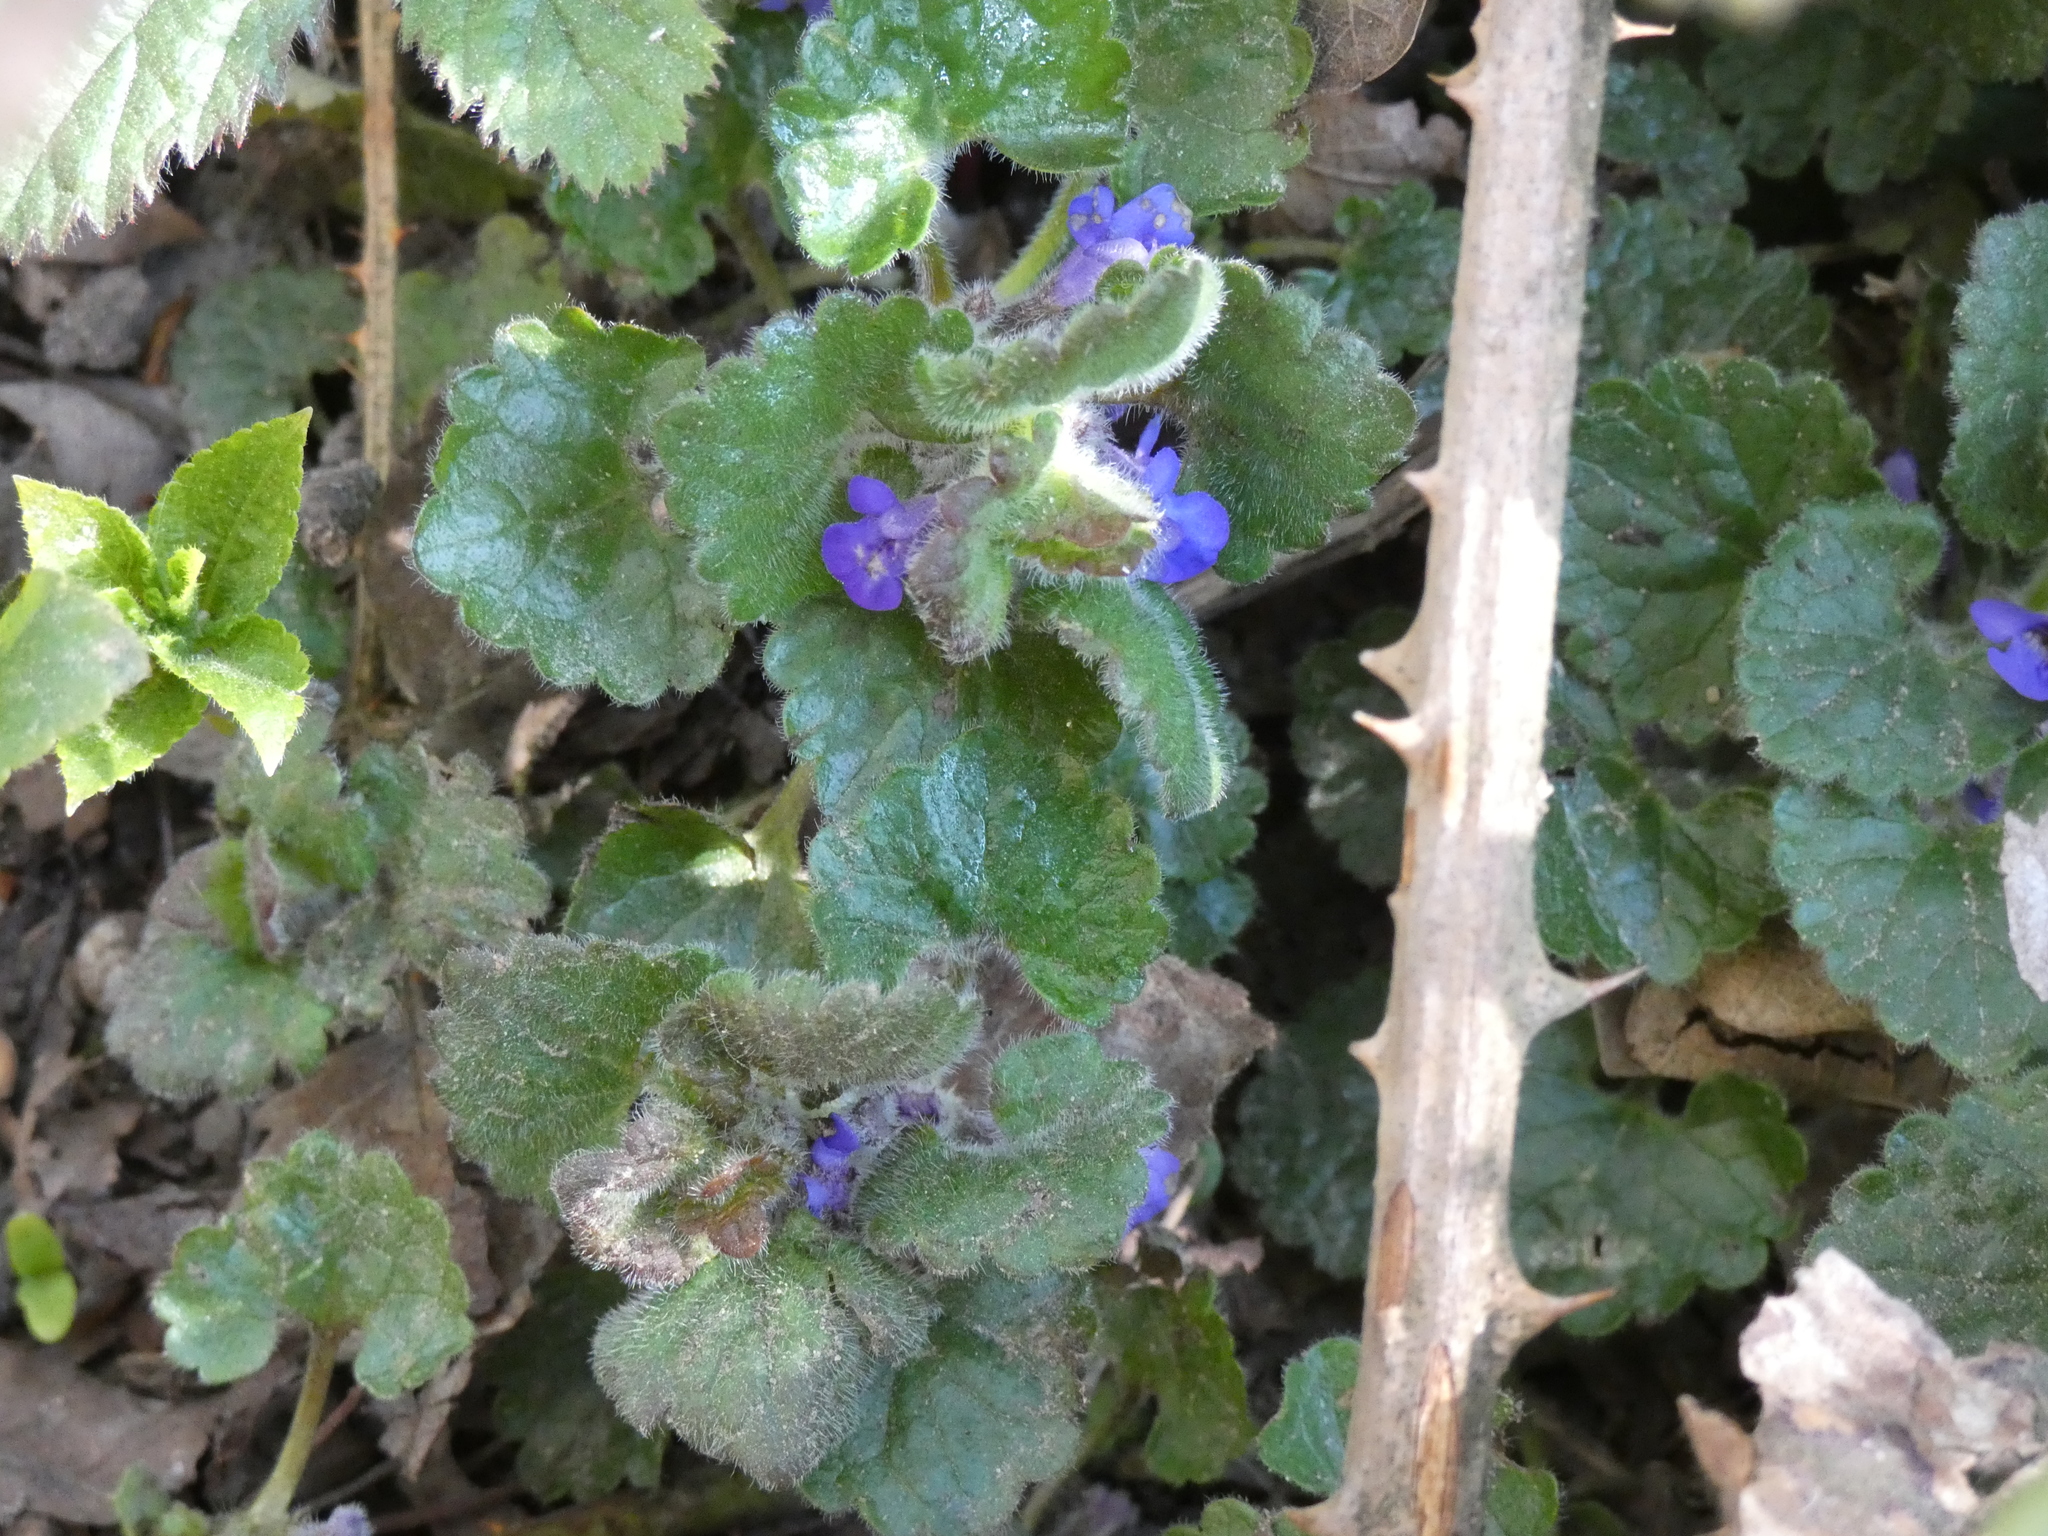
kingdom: Plantae
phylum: Tracheophyta
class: Magnoliopsida
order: Lamiales
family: Lamiaceae
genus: Glechoma
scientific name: Glechoma hederacea
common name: Ground ivy
